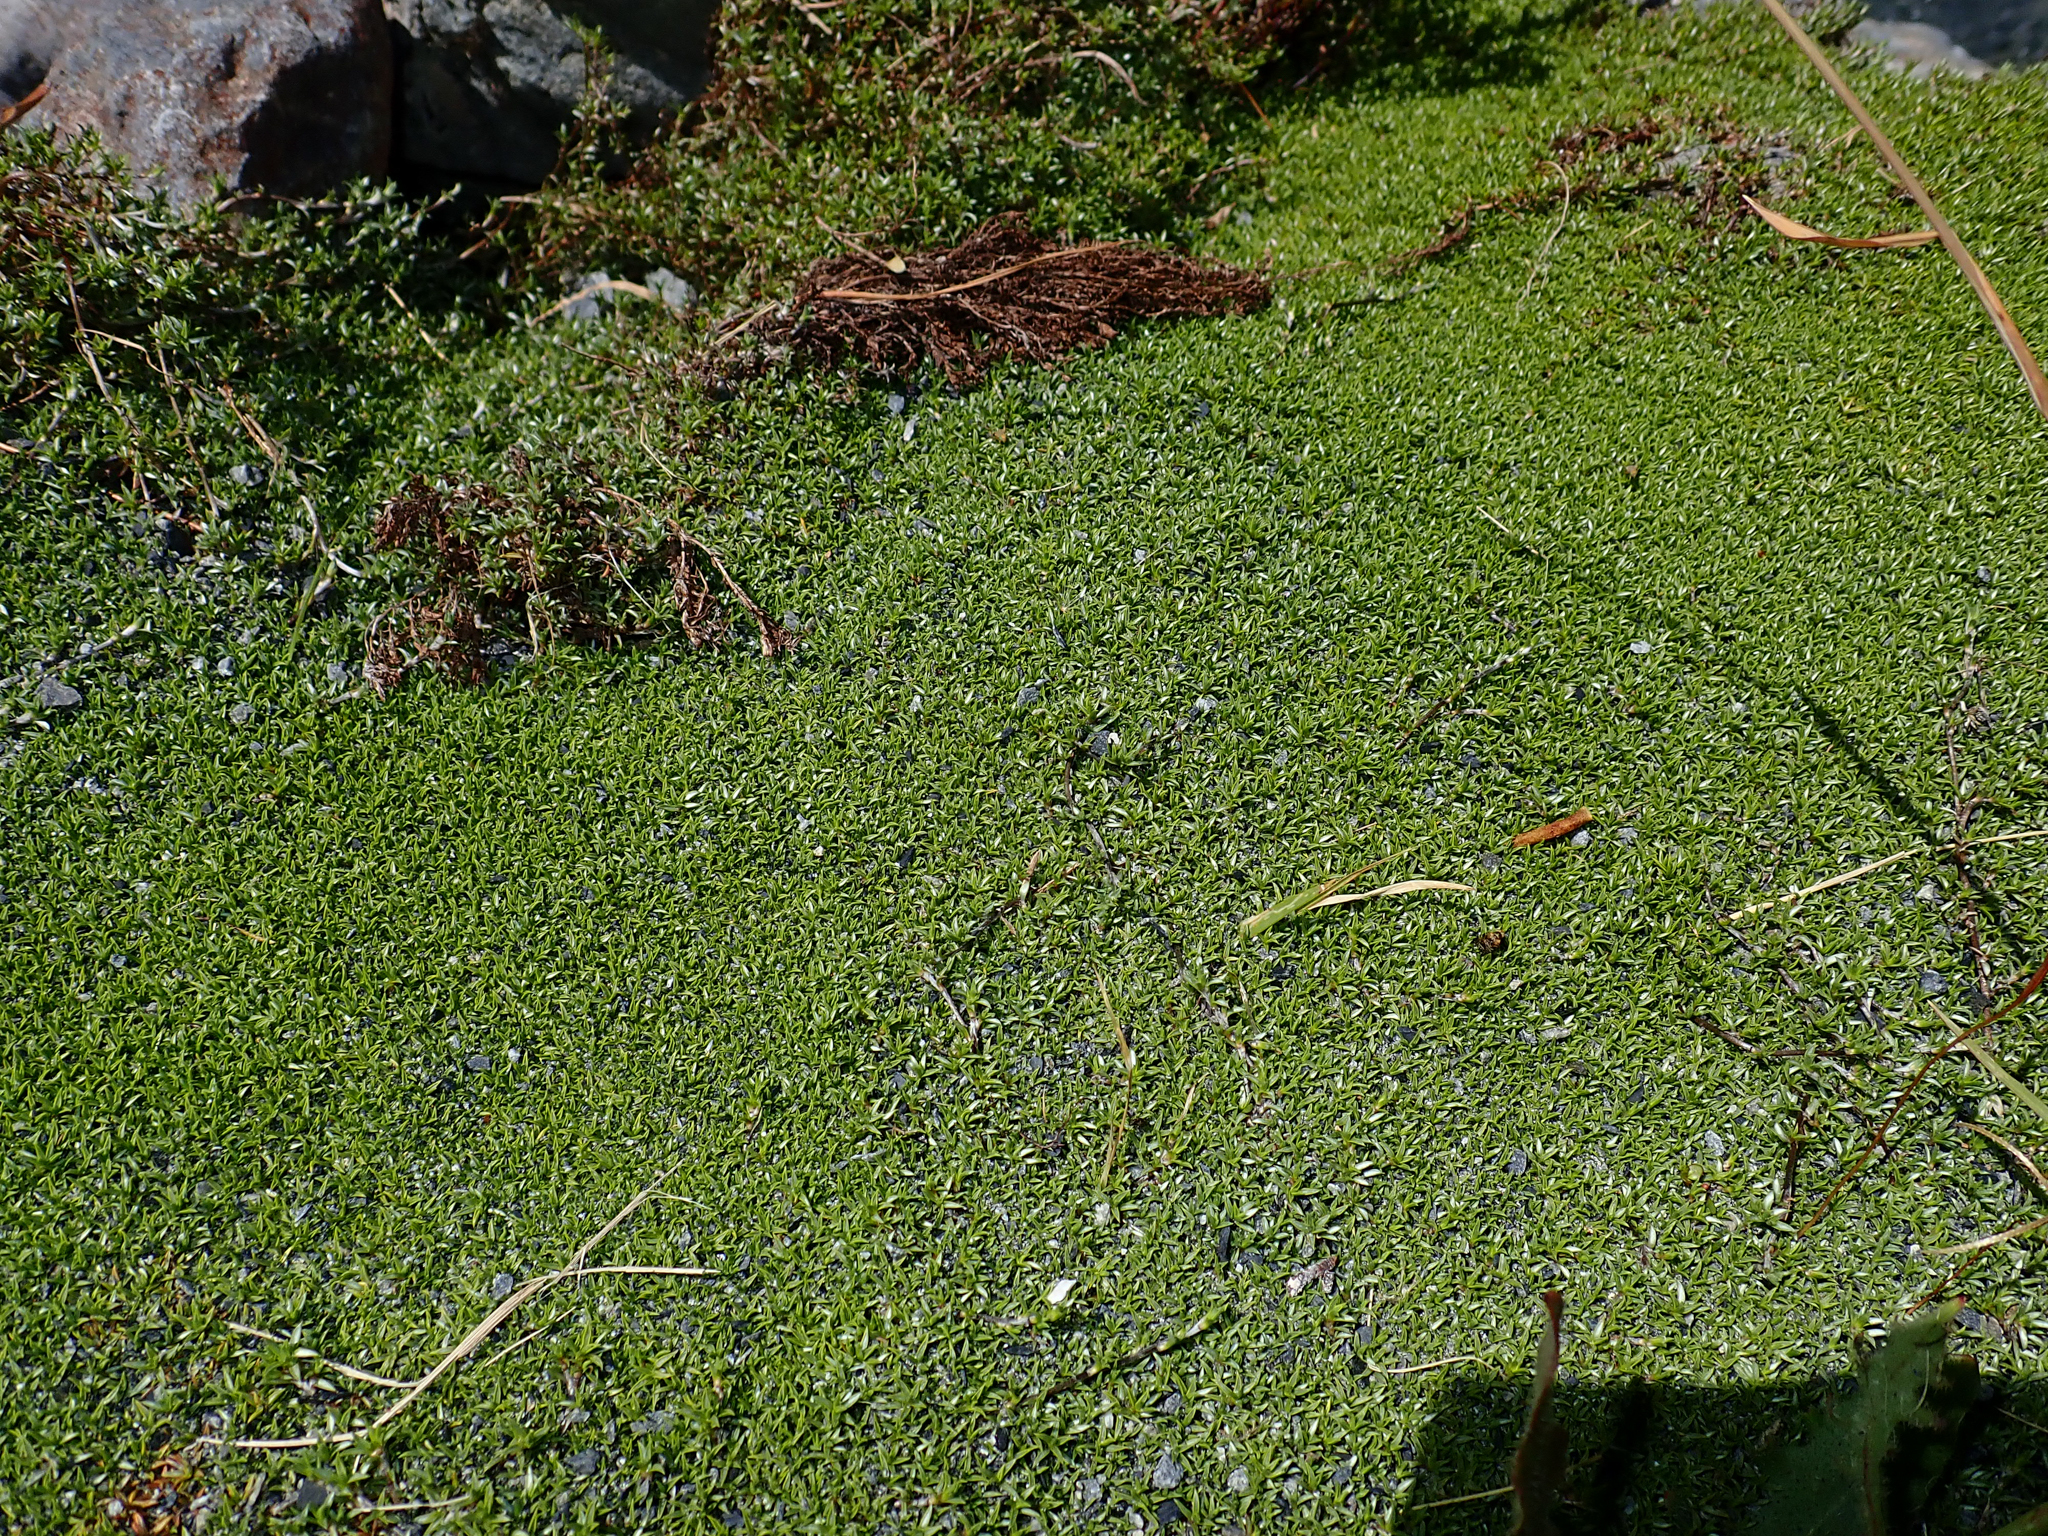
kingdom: Plantae
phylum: Tracheophyta
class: Magnoliopsida
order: Asterales
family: Asteraceae
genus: Raoulia
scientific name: Raoulia tenuicaulis
